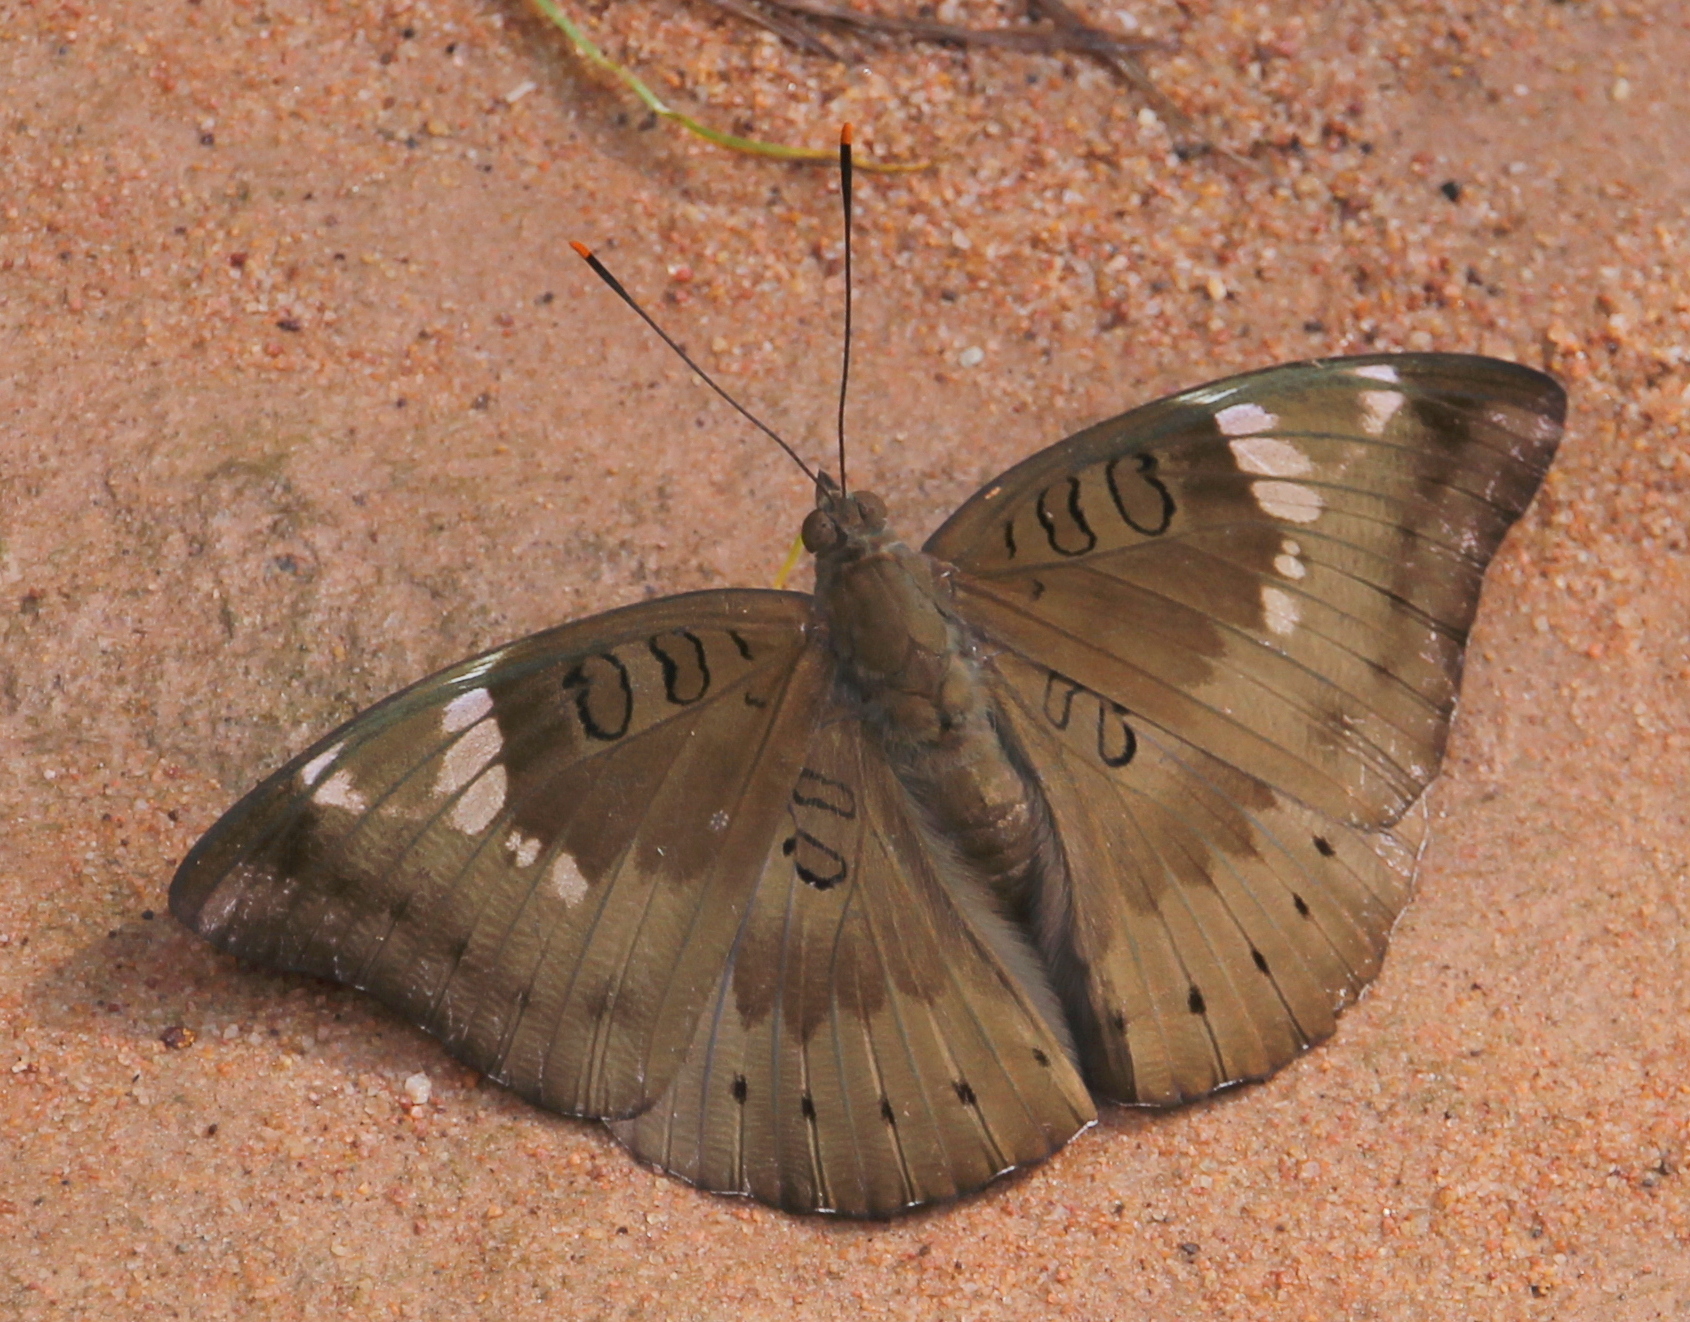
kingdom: Animalia
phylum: Arthropoda
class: Insecta
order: Lepidoptera
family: Nymphalidae
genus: Euthalia
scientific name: Euthalia aconthea
